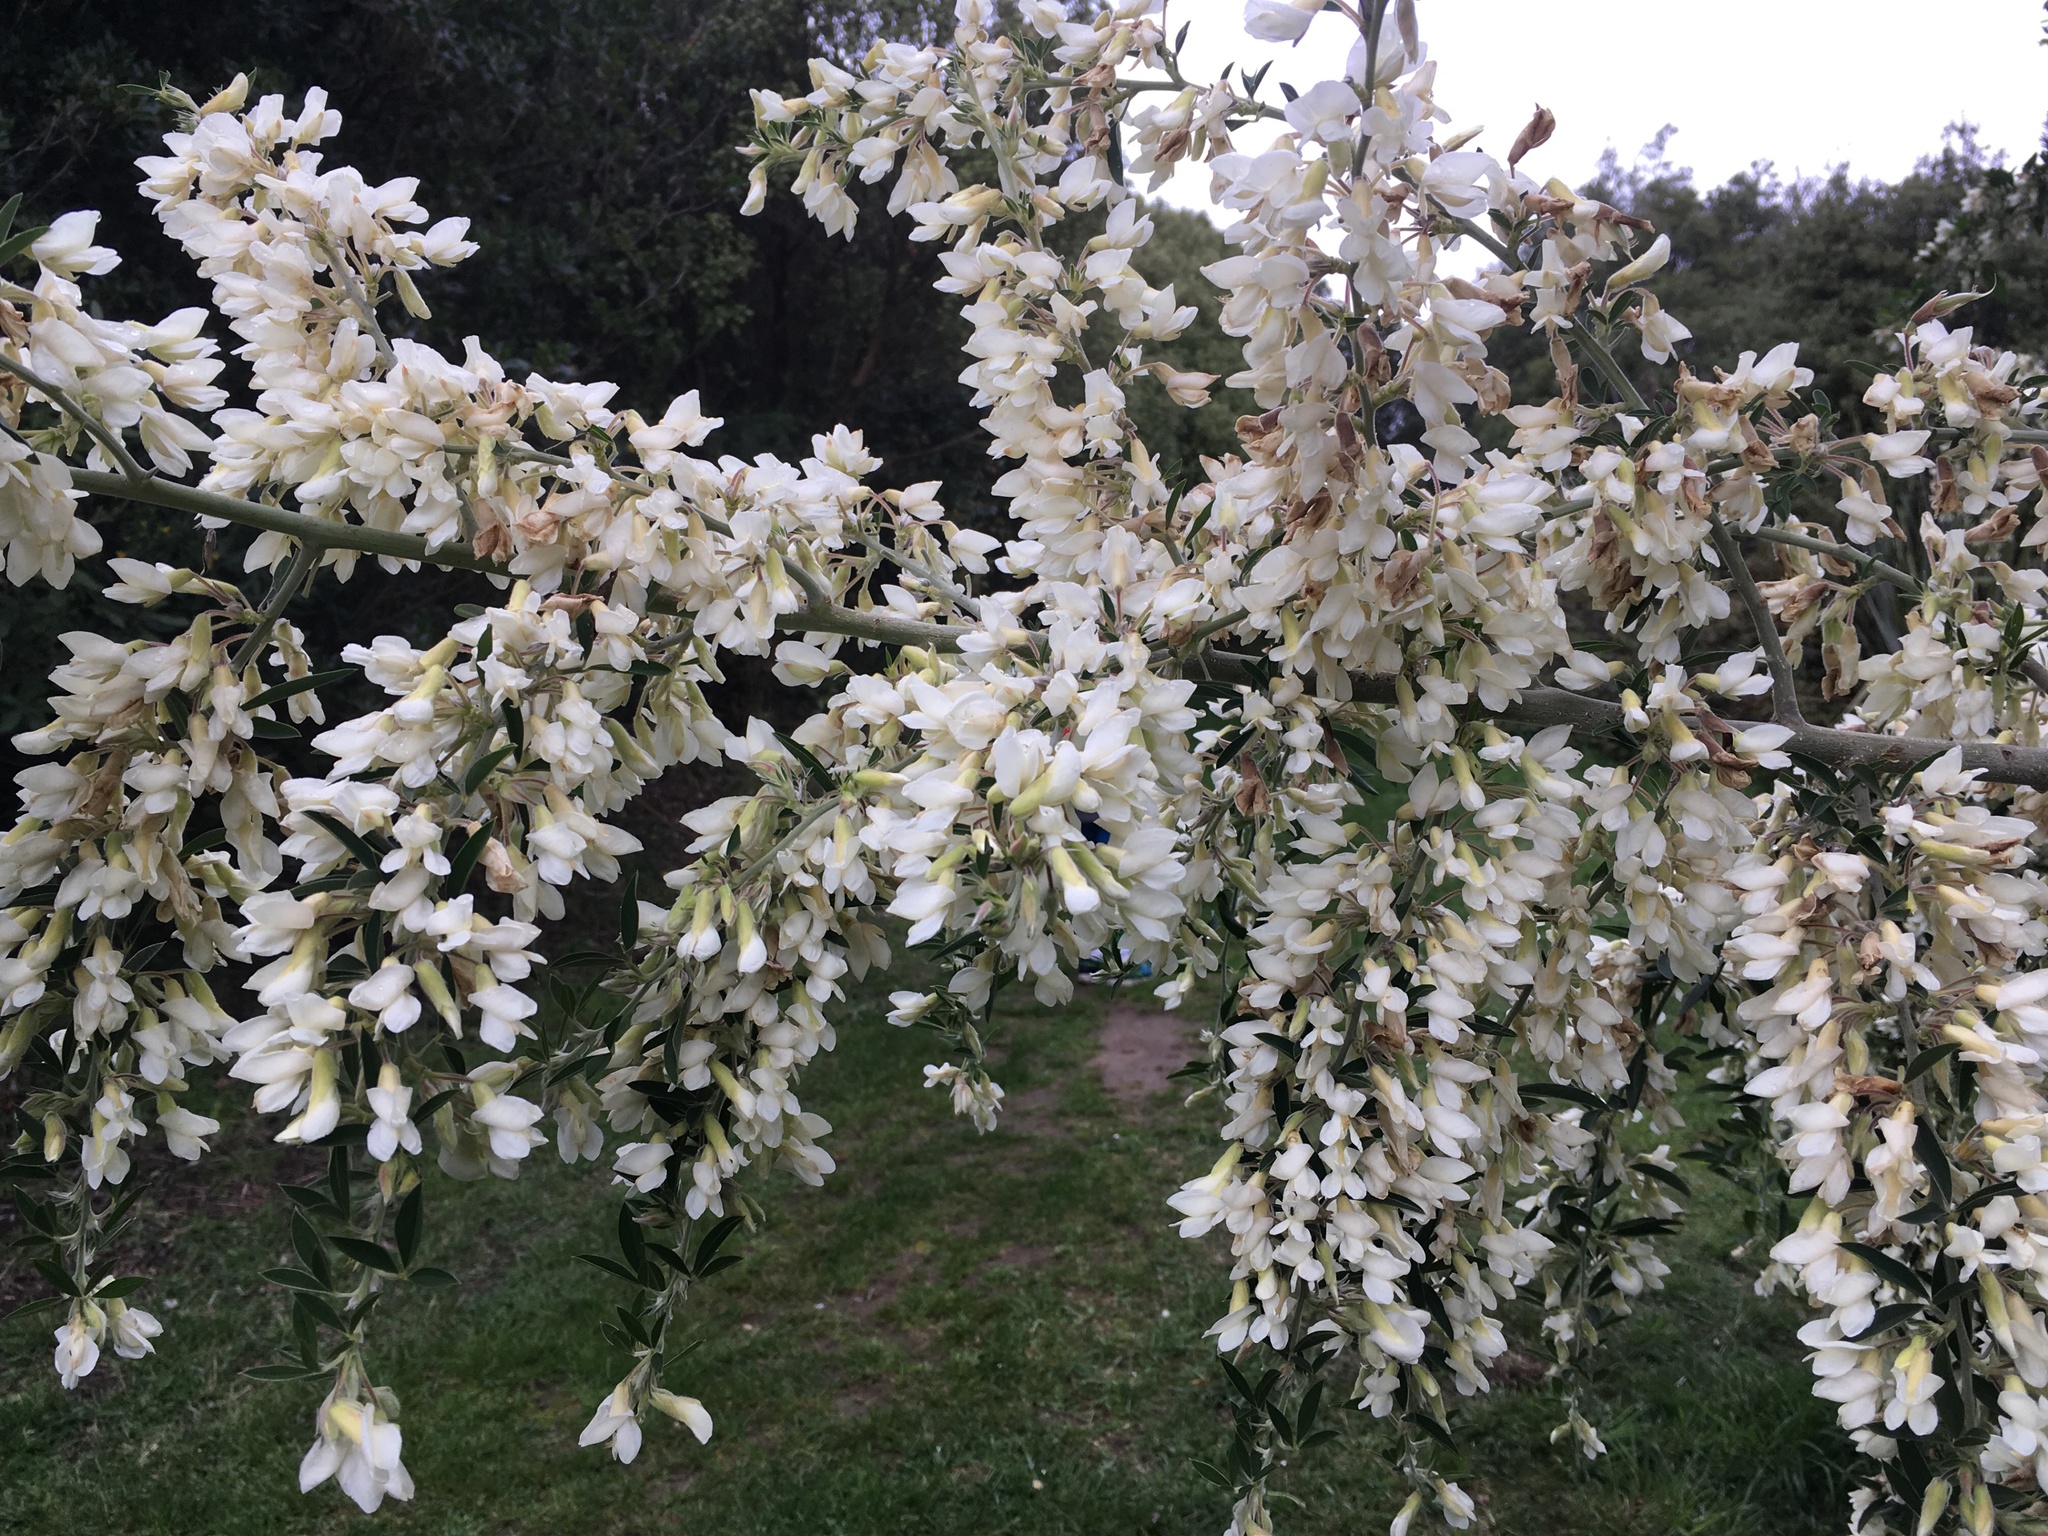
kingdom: Plantae
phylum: Tracheophyta
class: Magnoliopsida
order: Fabales
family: Fabaceae
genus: Chamaecytisus
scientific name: Chamaecytisus prolifer
